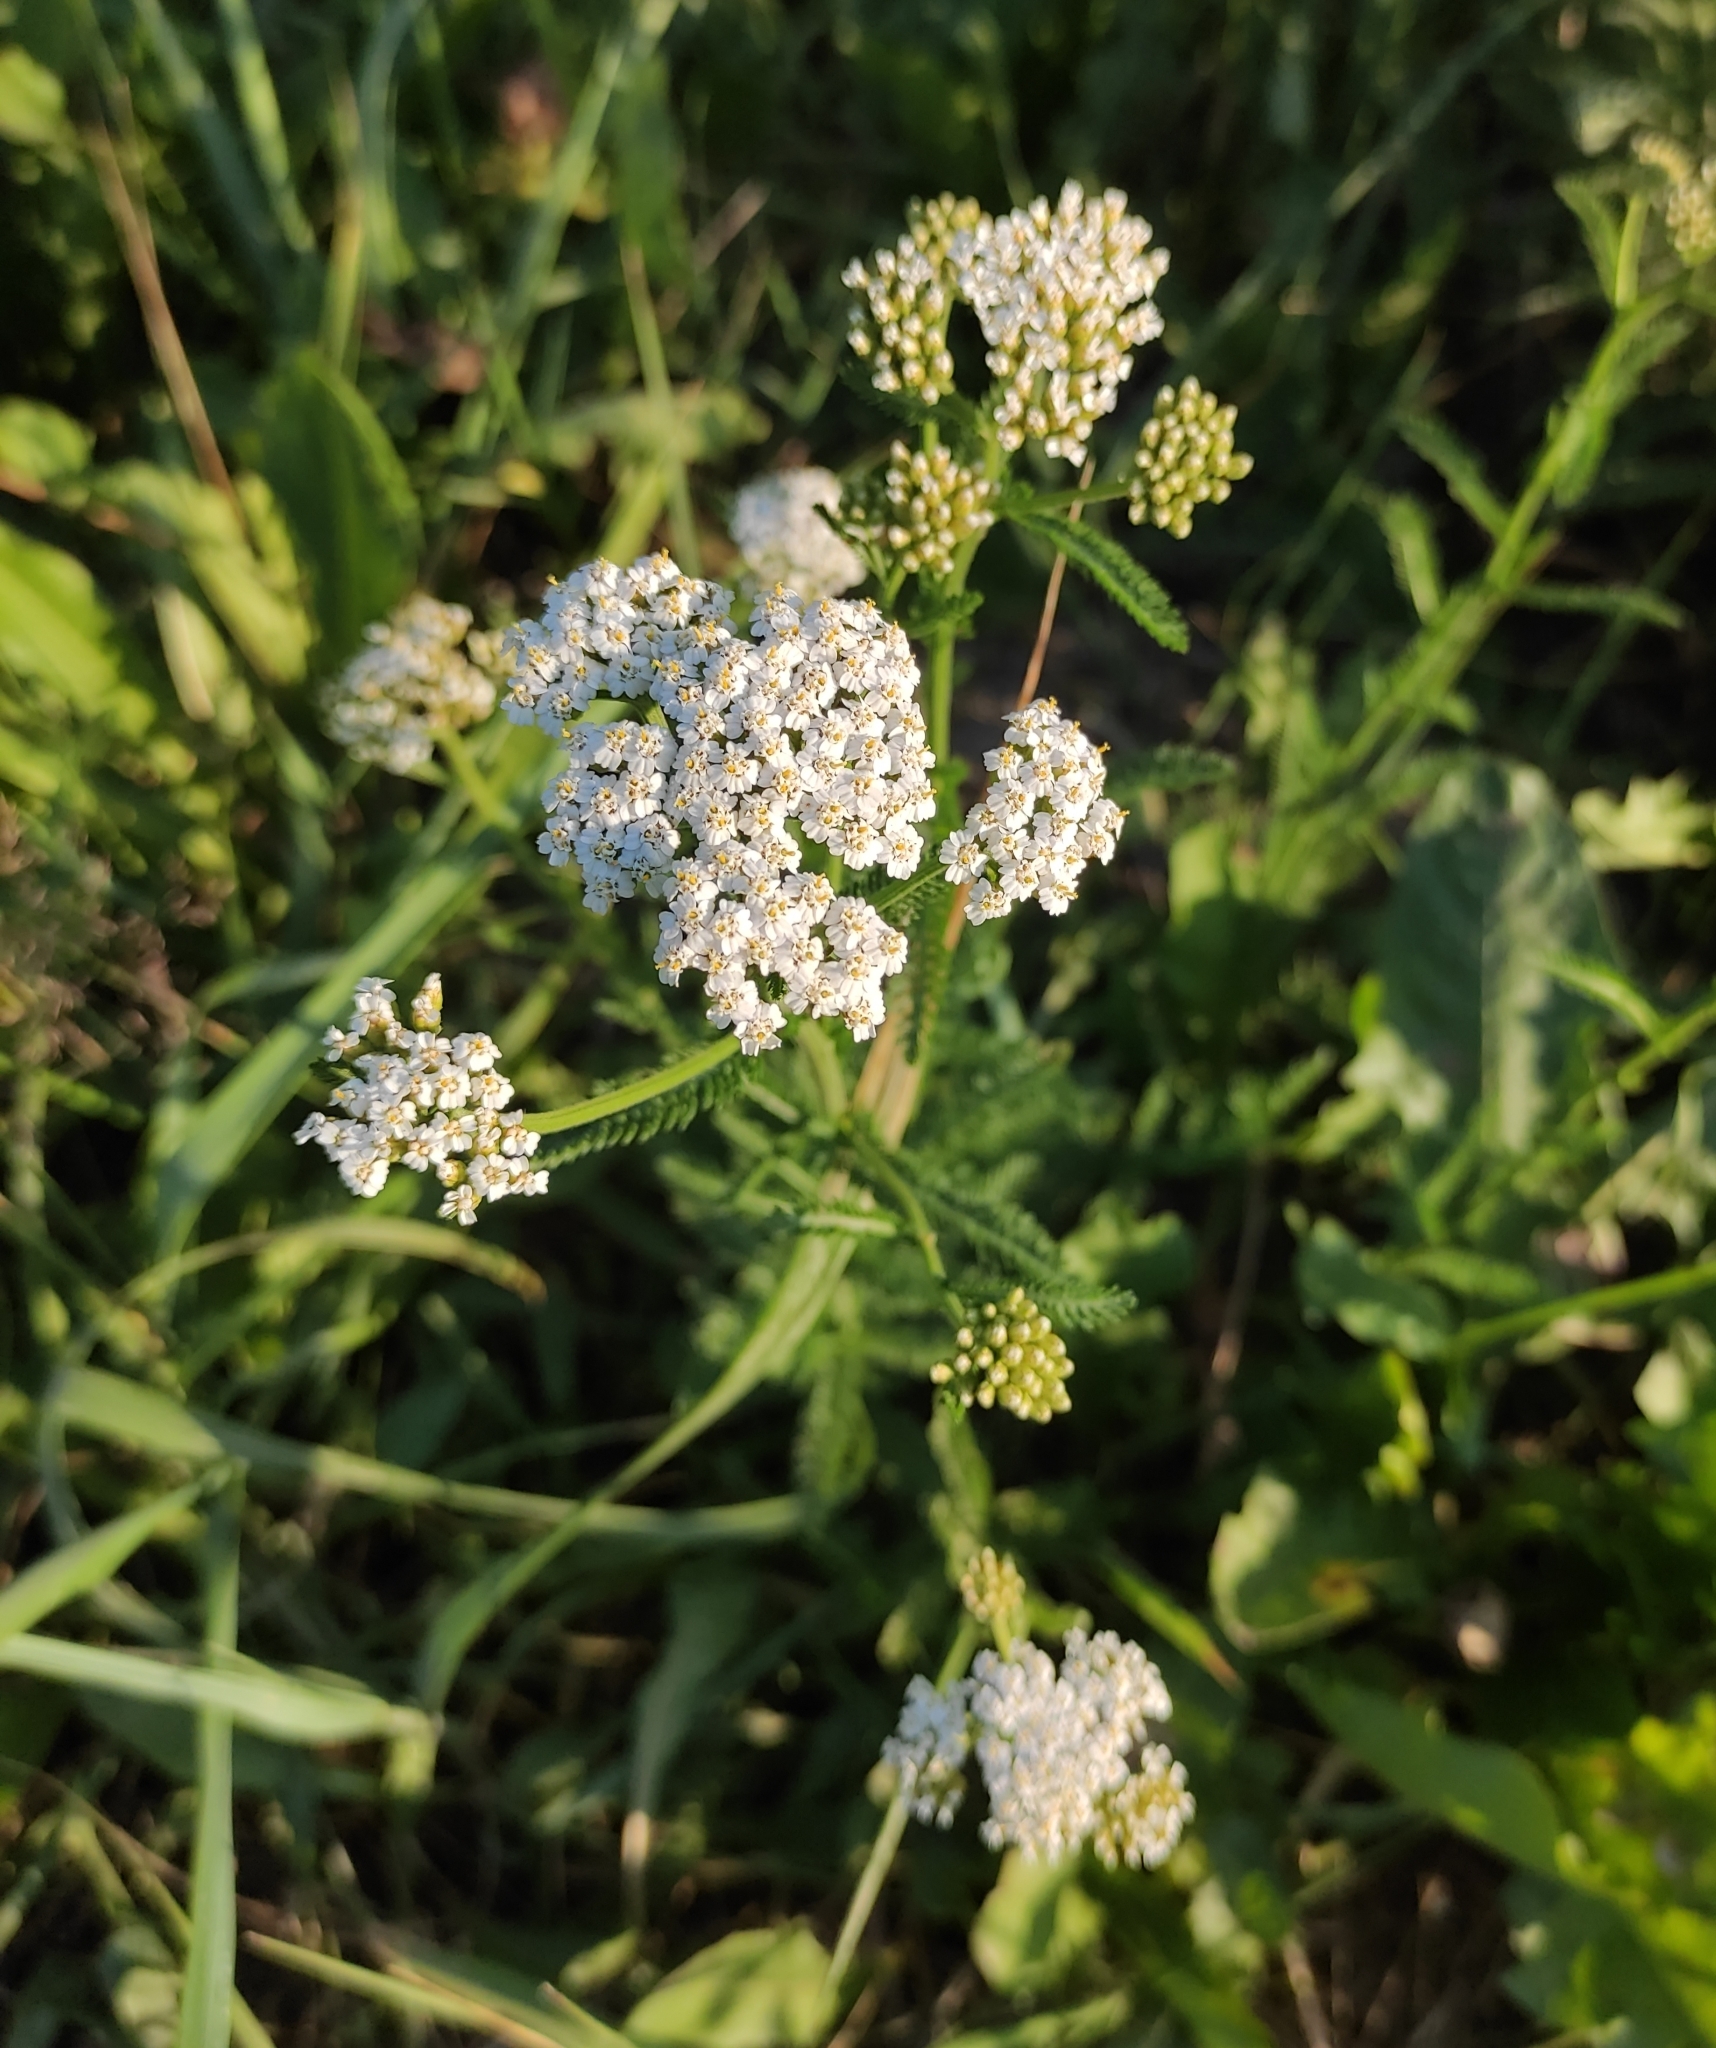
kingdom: Plantae
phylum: Tracheophyta
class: Magnoliopsida
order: Asterales
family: Asteraceae
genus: Achillea
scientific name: Achillea millefolium
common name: Yarrow
